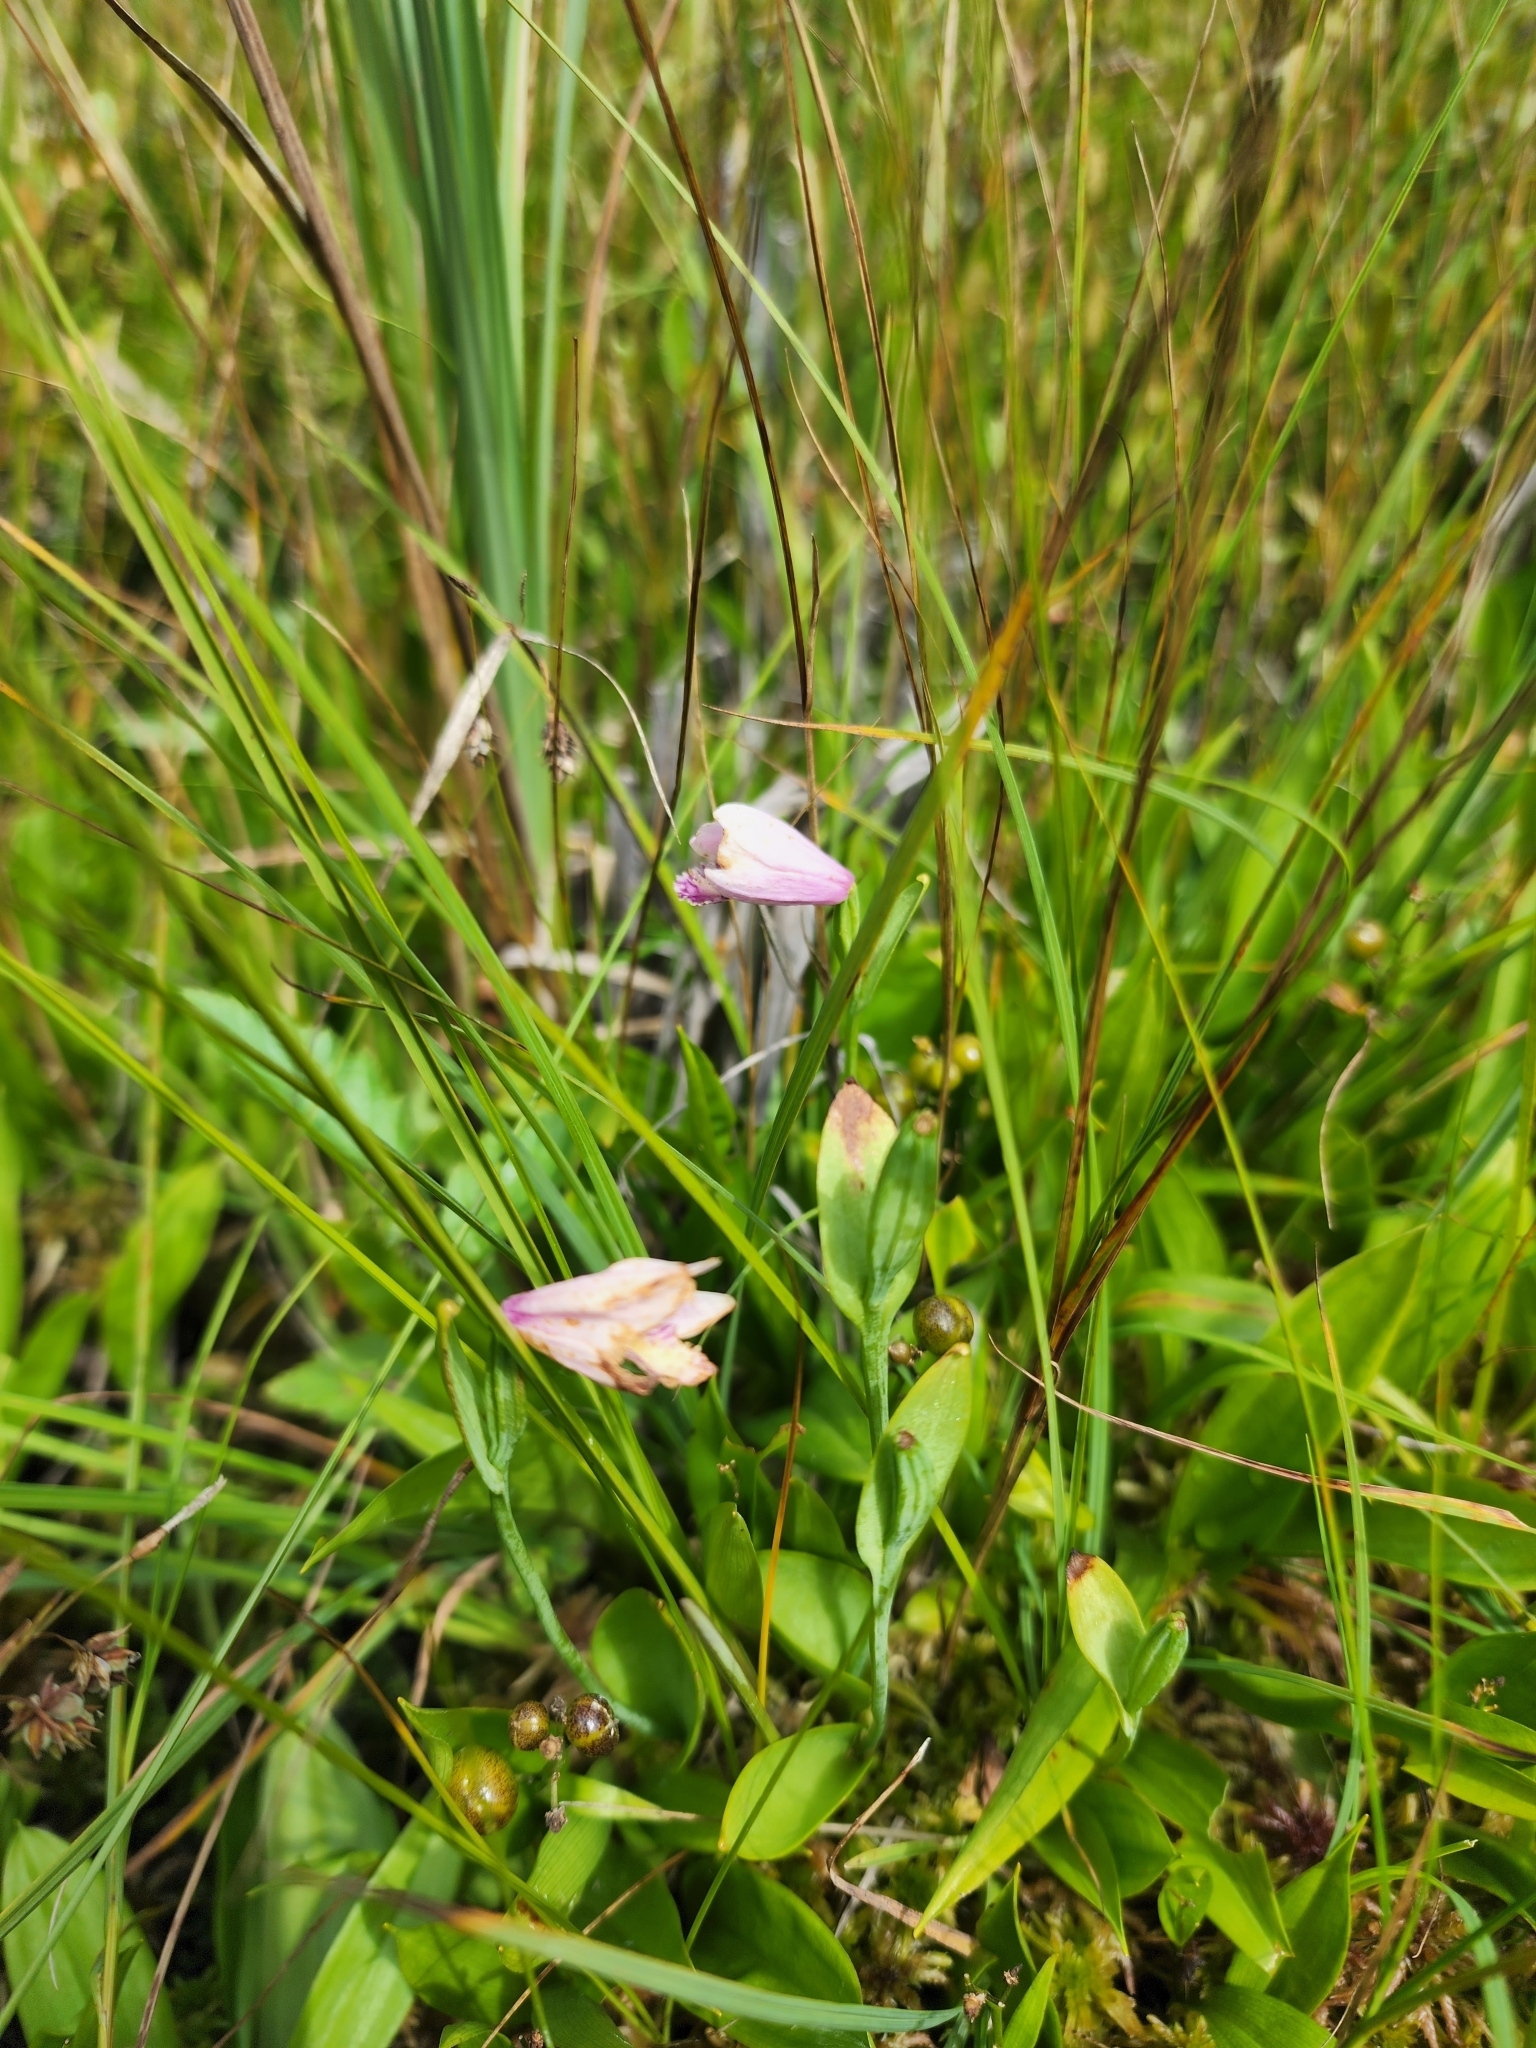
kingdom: Plantae
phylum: Tracheophyta
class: Liliopsida
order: Asparagales
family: Orchidaceae
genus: Pogonia
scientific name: Pogonia ophioglossoides
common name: Rose pogonia
